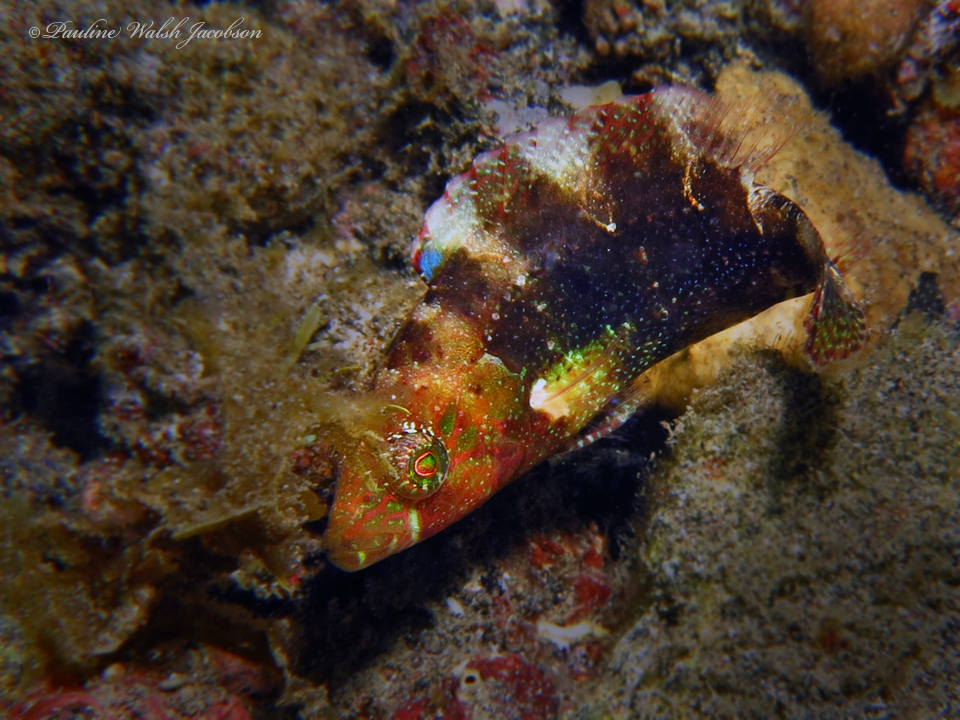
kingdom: Animalia
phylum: Chordata
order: Perciformes
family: Labridae
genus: Oxycheilinus
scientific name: Oxycheilinus bimaculatus
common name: Comettailed wrasse
